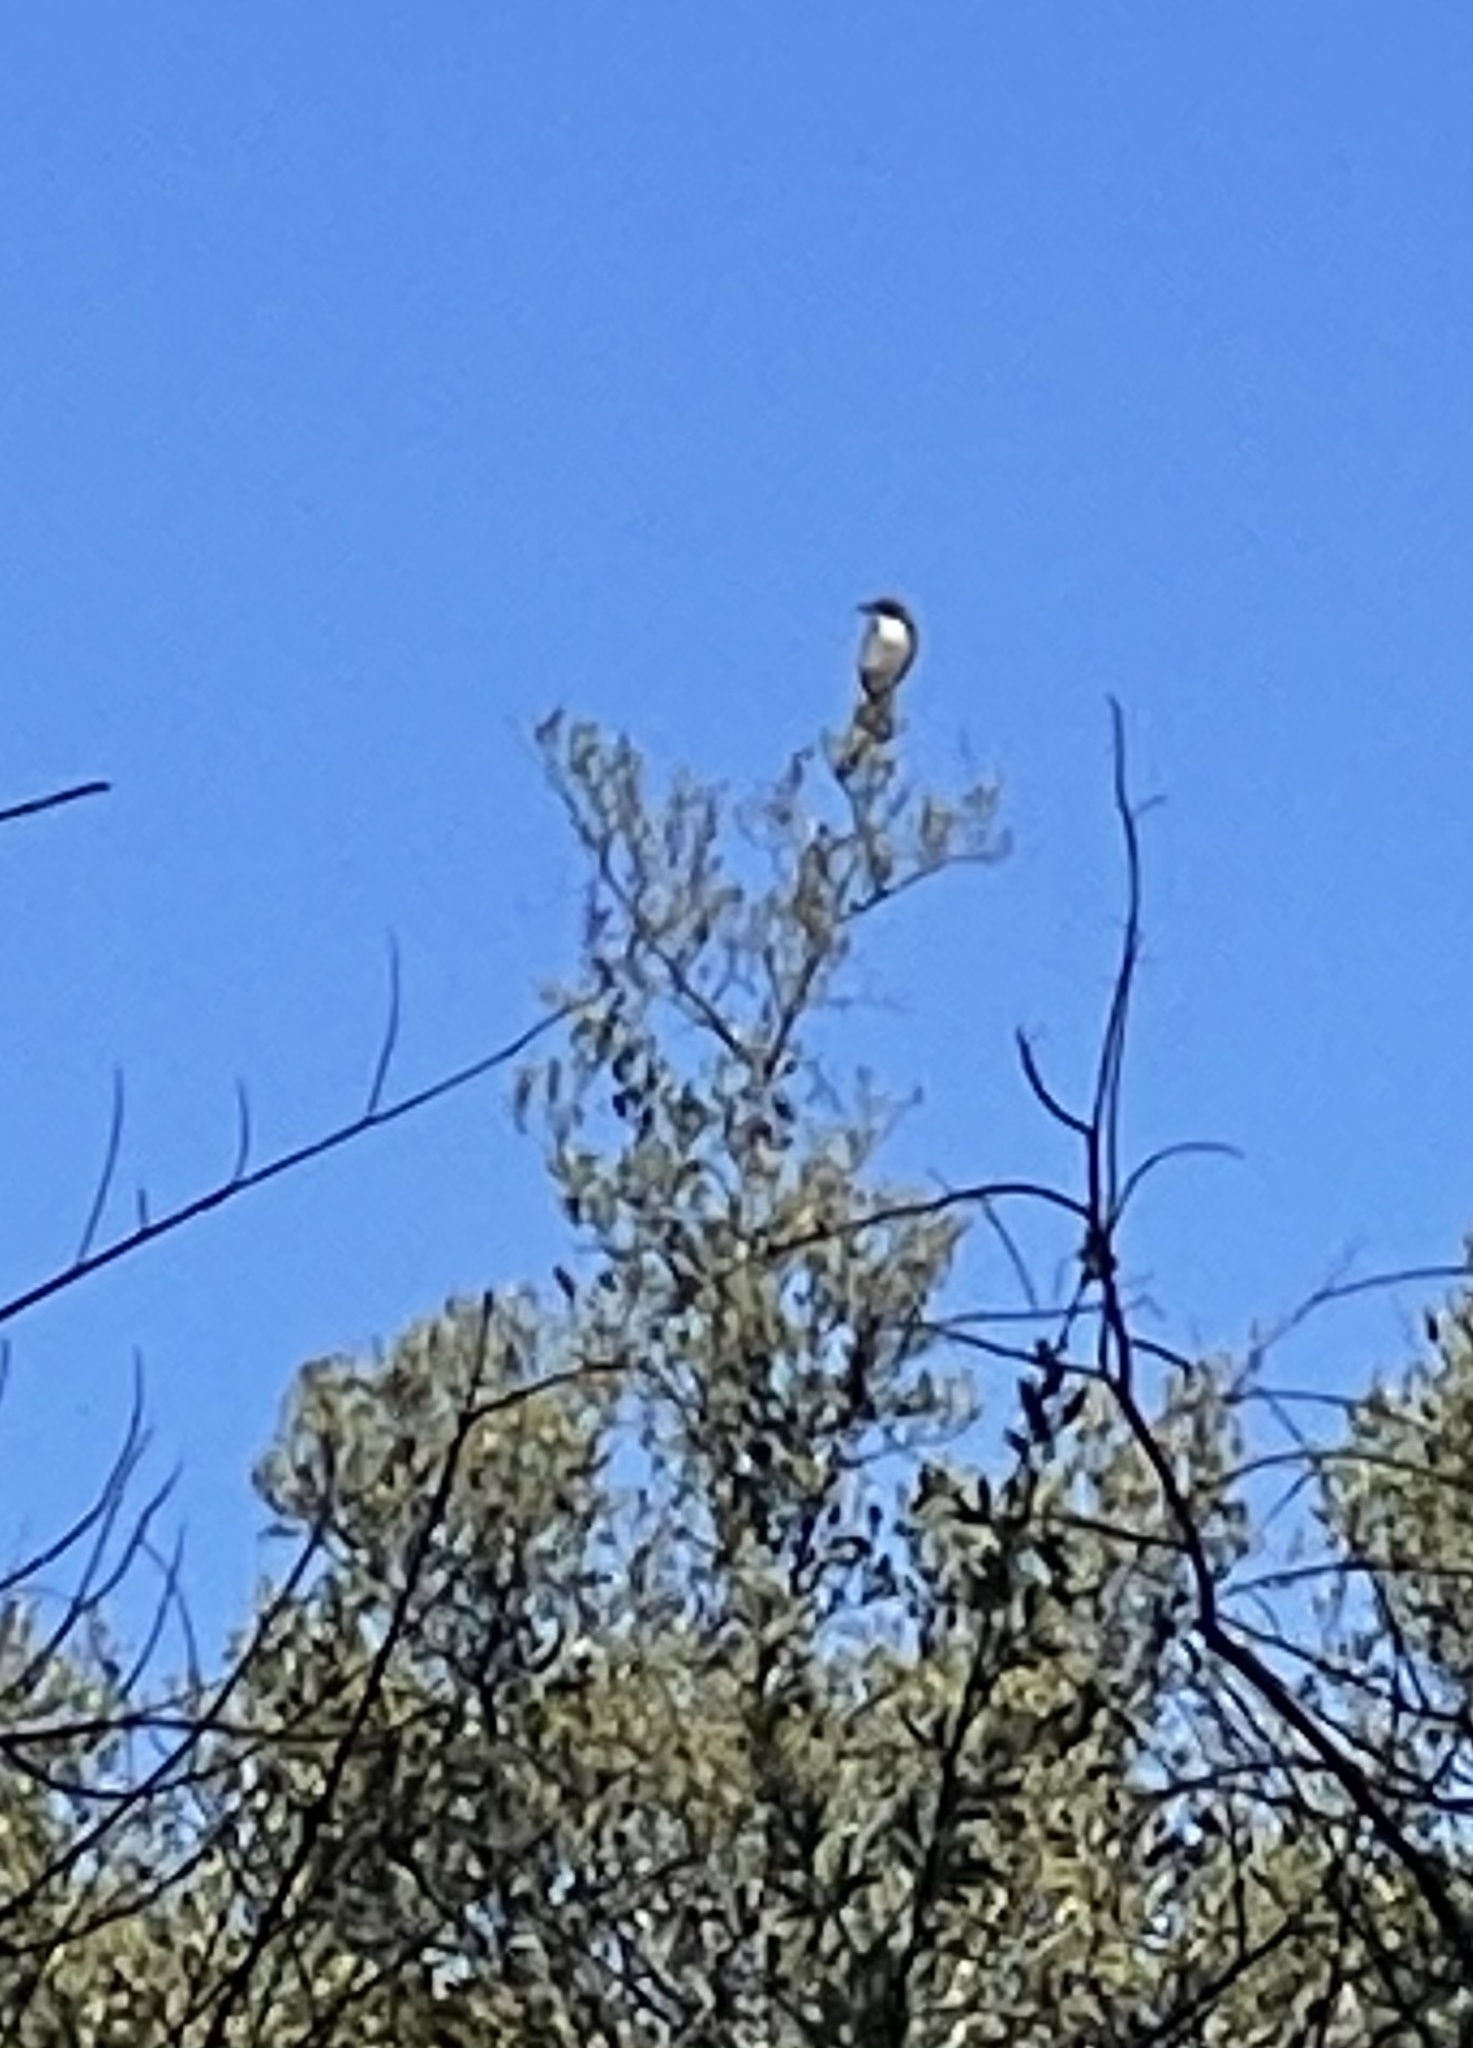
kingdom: Animalia
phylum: Chordata
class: Aves
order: Passeriformes
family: Corvidae
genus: Aphelocoma
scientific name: Aphelocoma californica
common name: California scrub-jay
